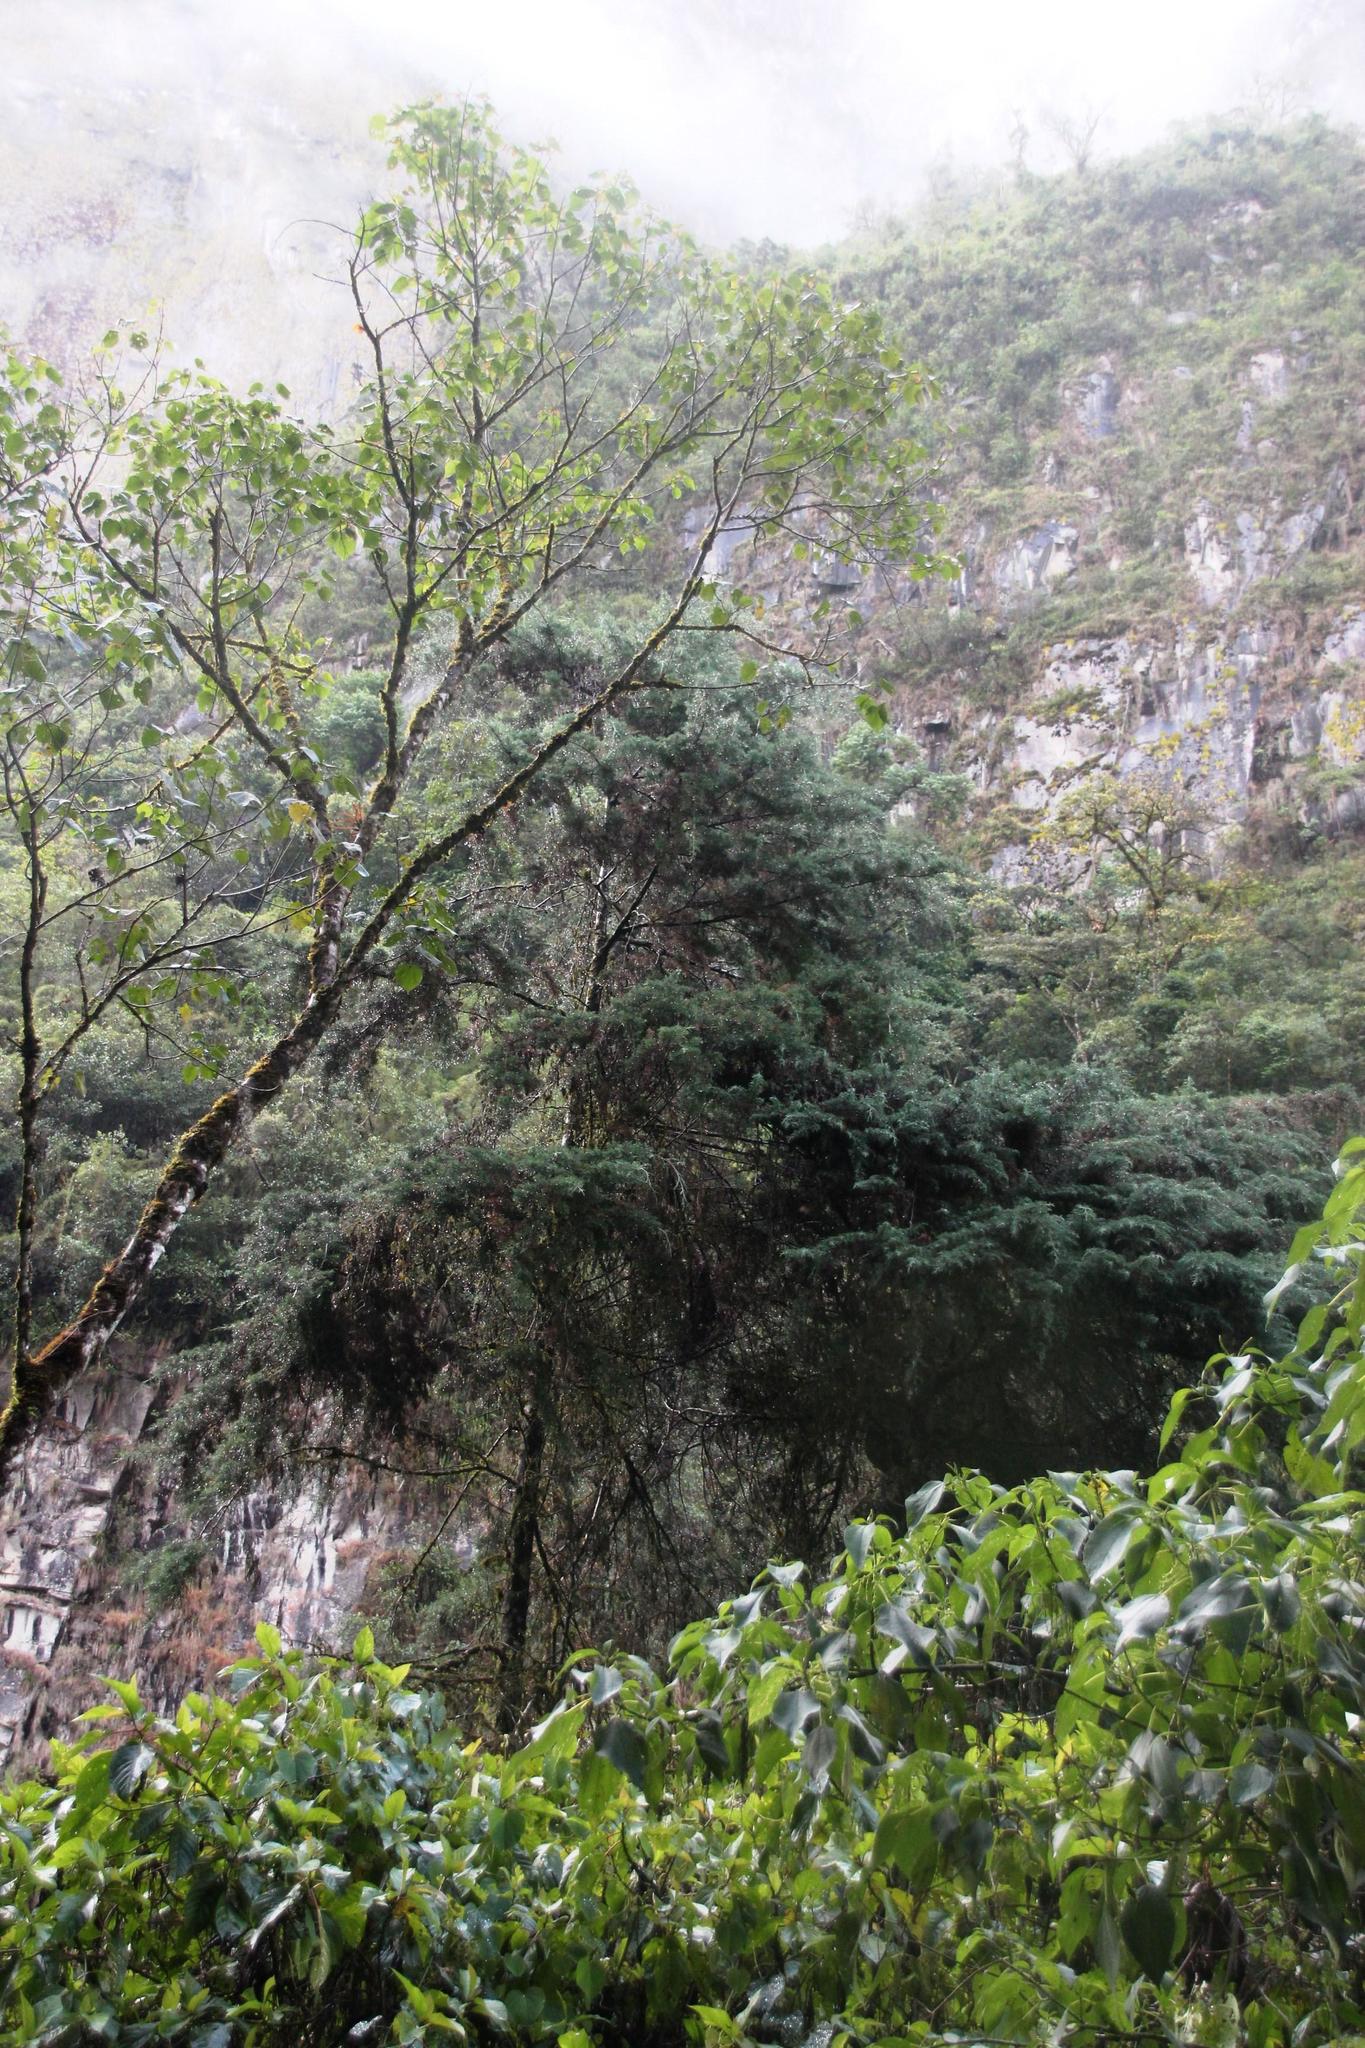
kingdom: Plantae
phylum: Tracheophyta
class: Pinopsida
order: Pinales
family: Podocarpaceae
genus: Podocarpus
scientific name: Podocarpus glomeratus
